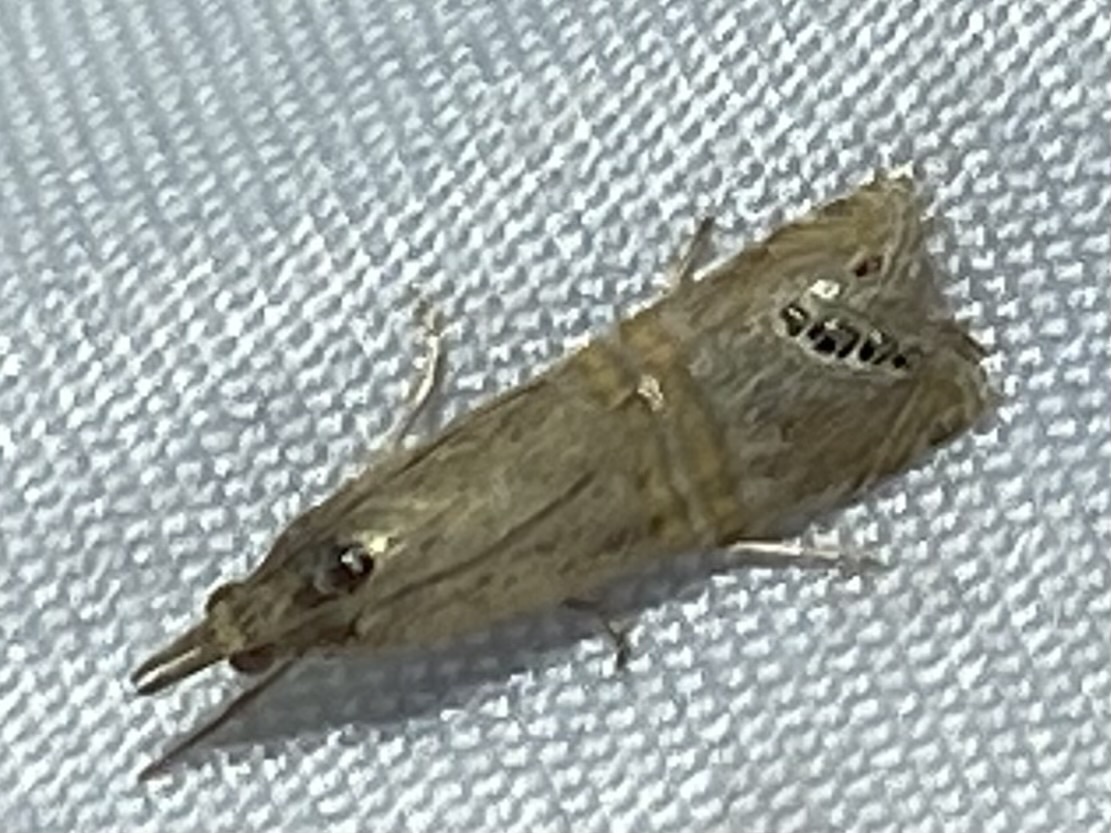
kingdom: Animalia
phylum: Arthropoda
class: Insecta
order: Lepidoptera
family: Crambidae
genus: Euchromius
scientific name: Euchromius ocellea
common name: Necklace veneer moth
